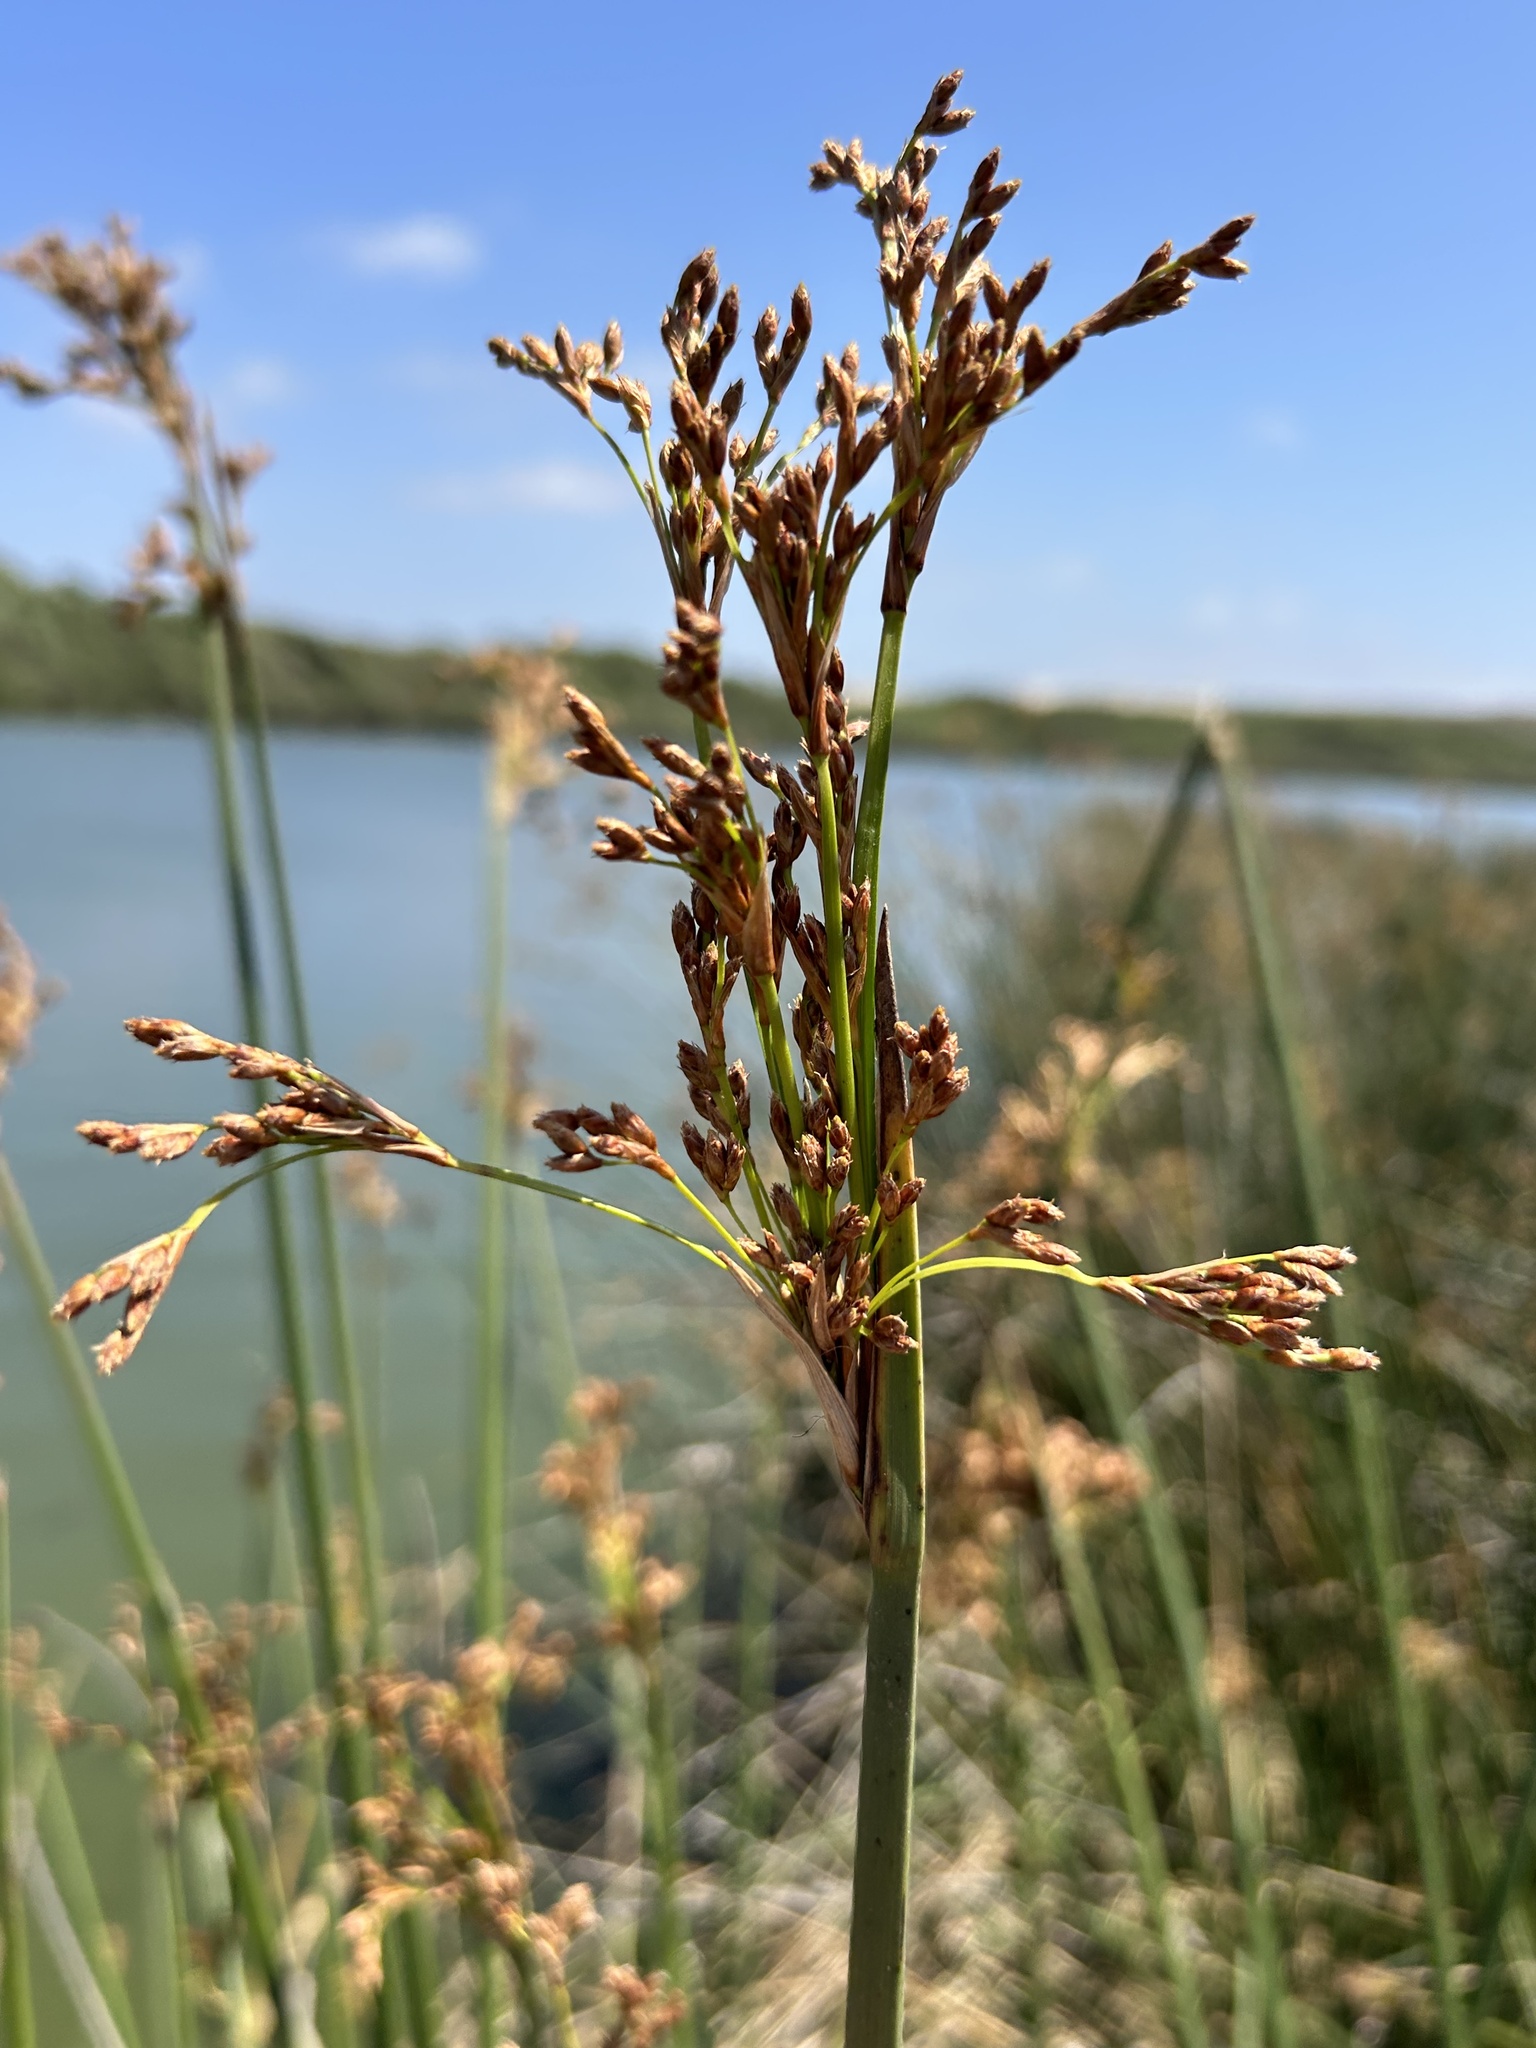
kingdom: Plantae
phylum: Tracheophyta
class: Liliopsida
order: Poales
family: Cyperaceae
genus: Schoenoplectus
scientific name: Schoenoplectus californicus
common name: California bulrush
